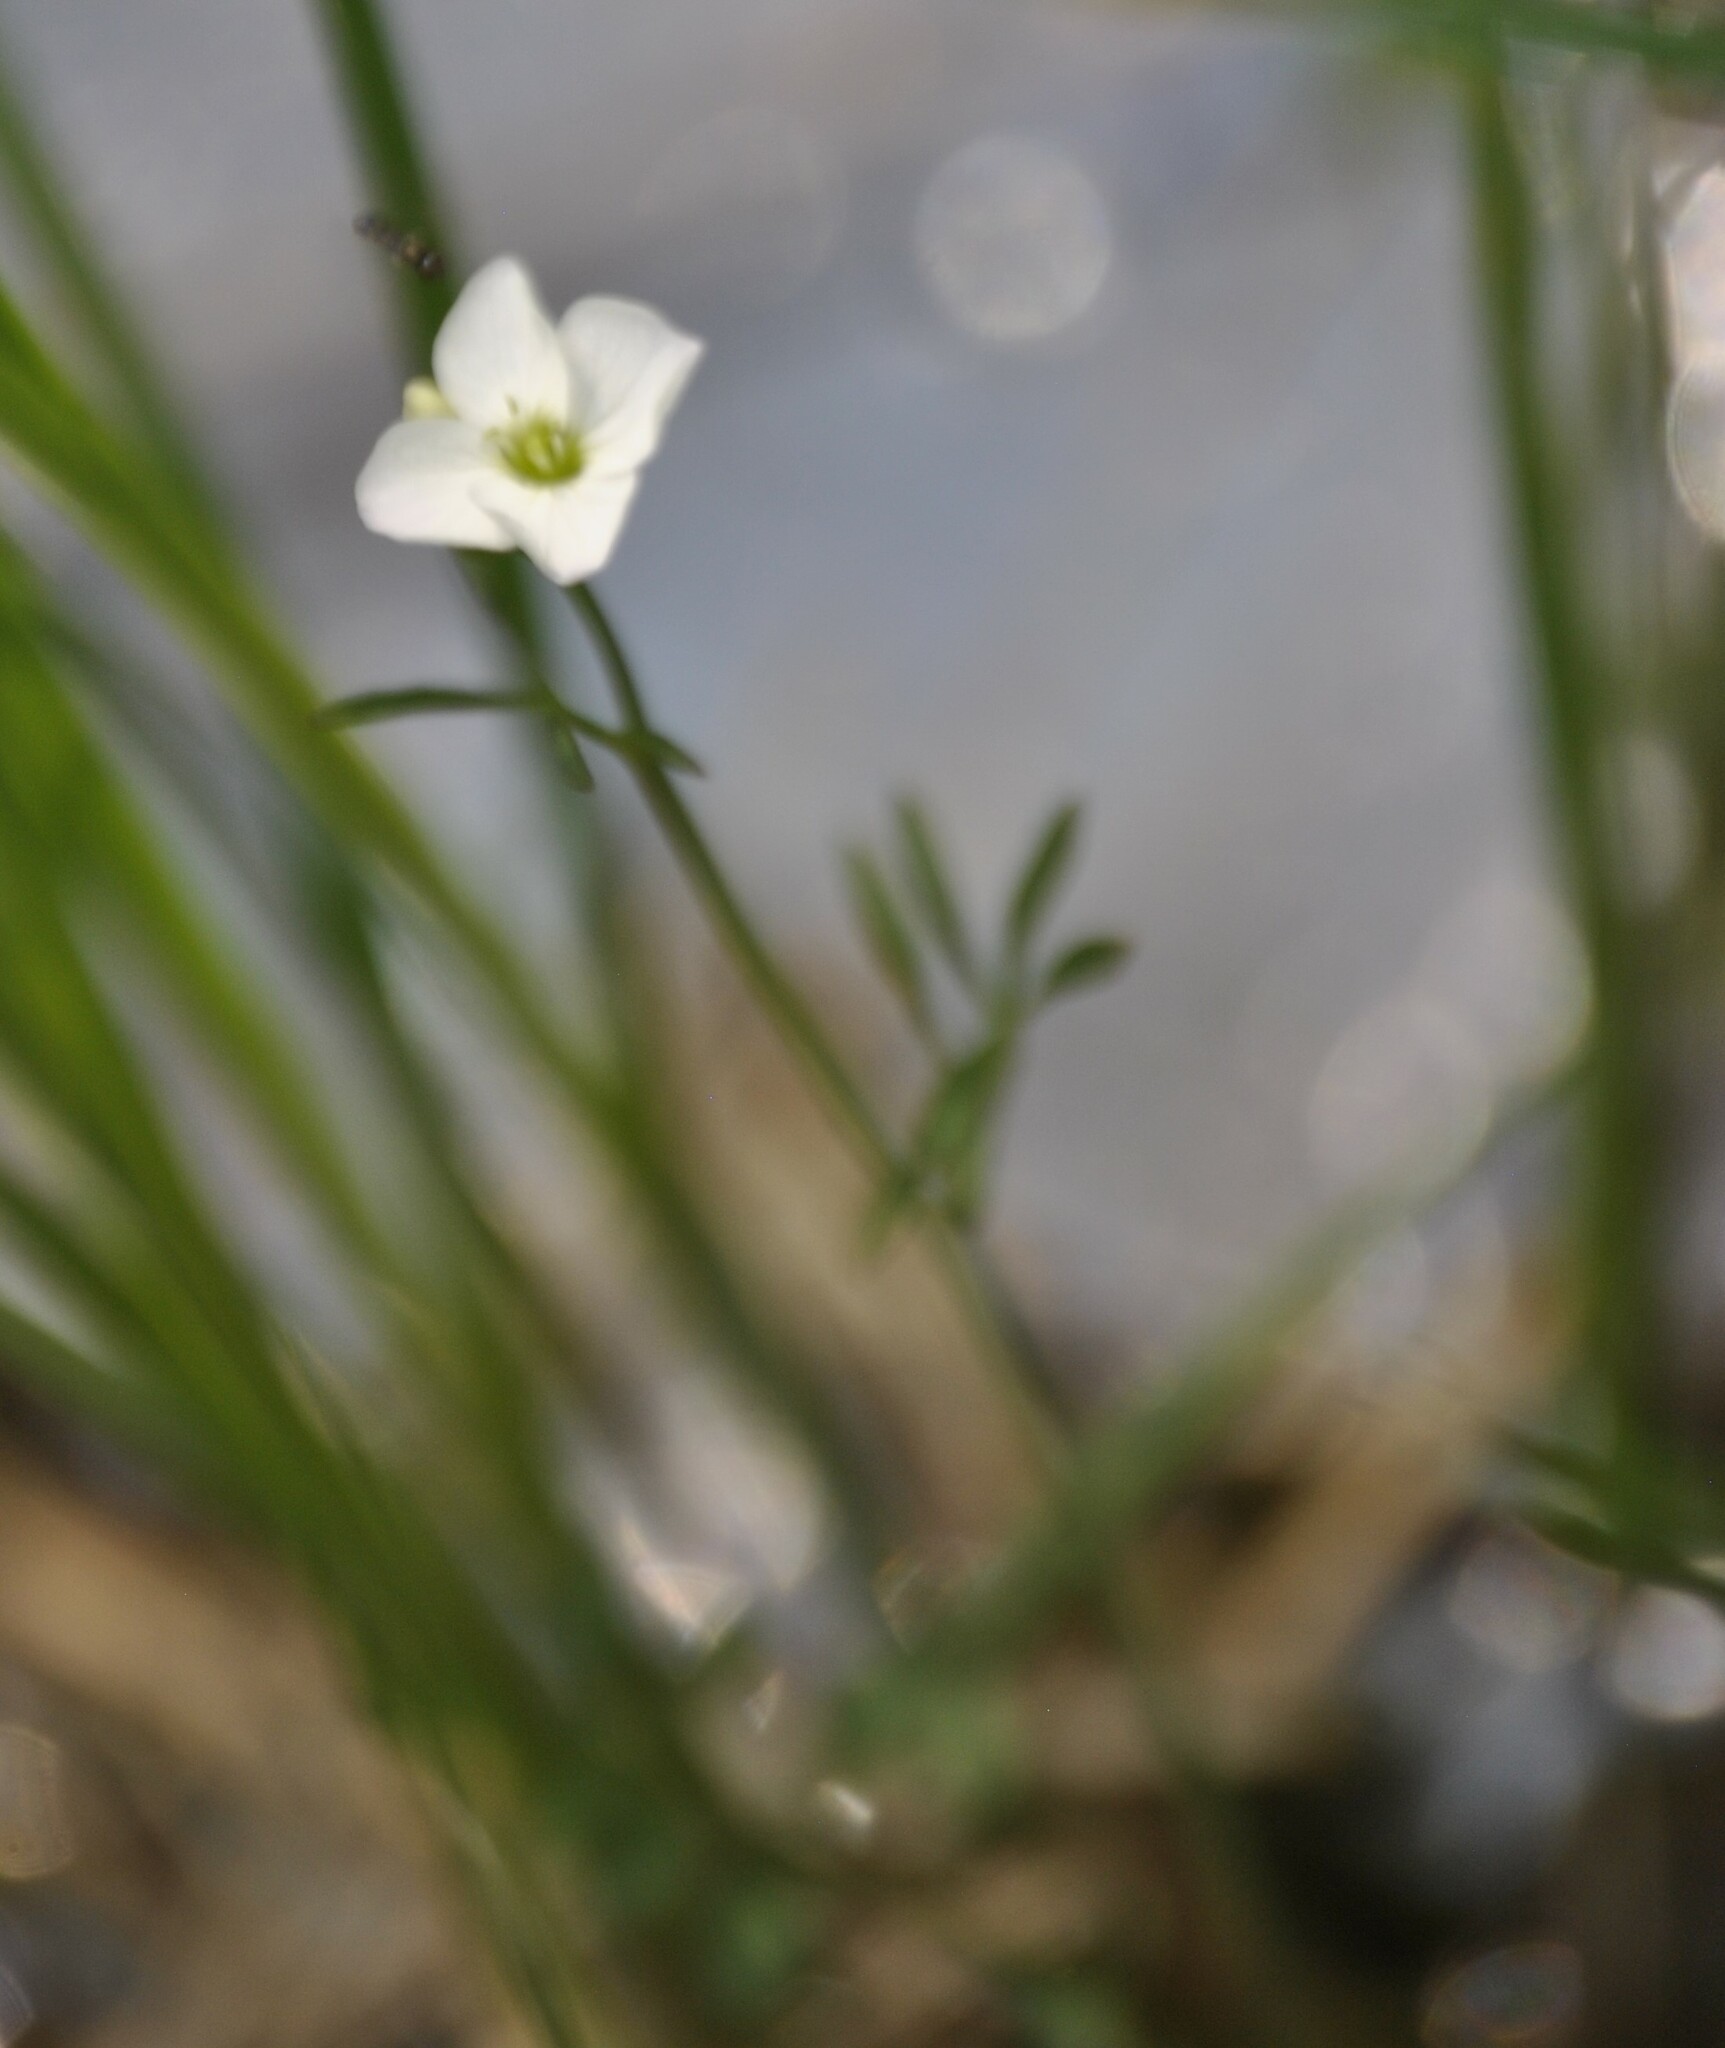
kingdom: Plantae
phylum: Tracheophyta
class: Magnoliopsida
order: Brassicales
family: Brassicaceae
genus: Cardamine
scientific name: Cardamine dentata
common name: Toothed bittercress
